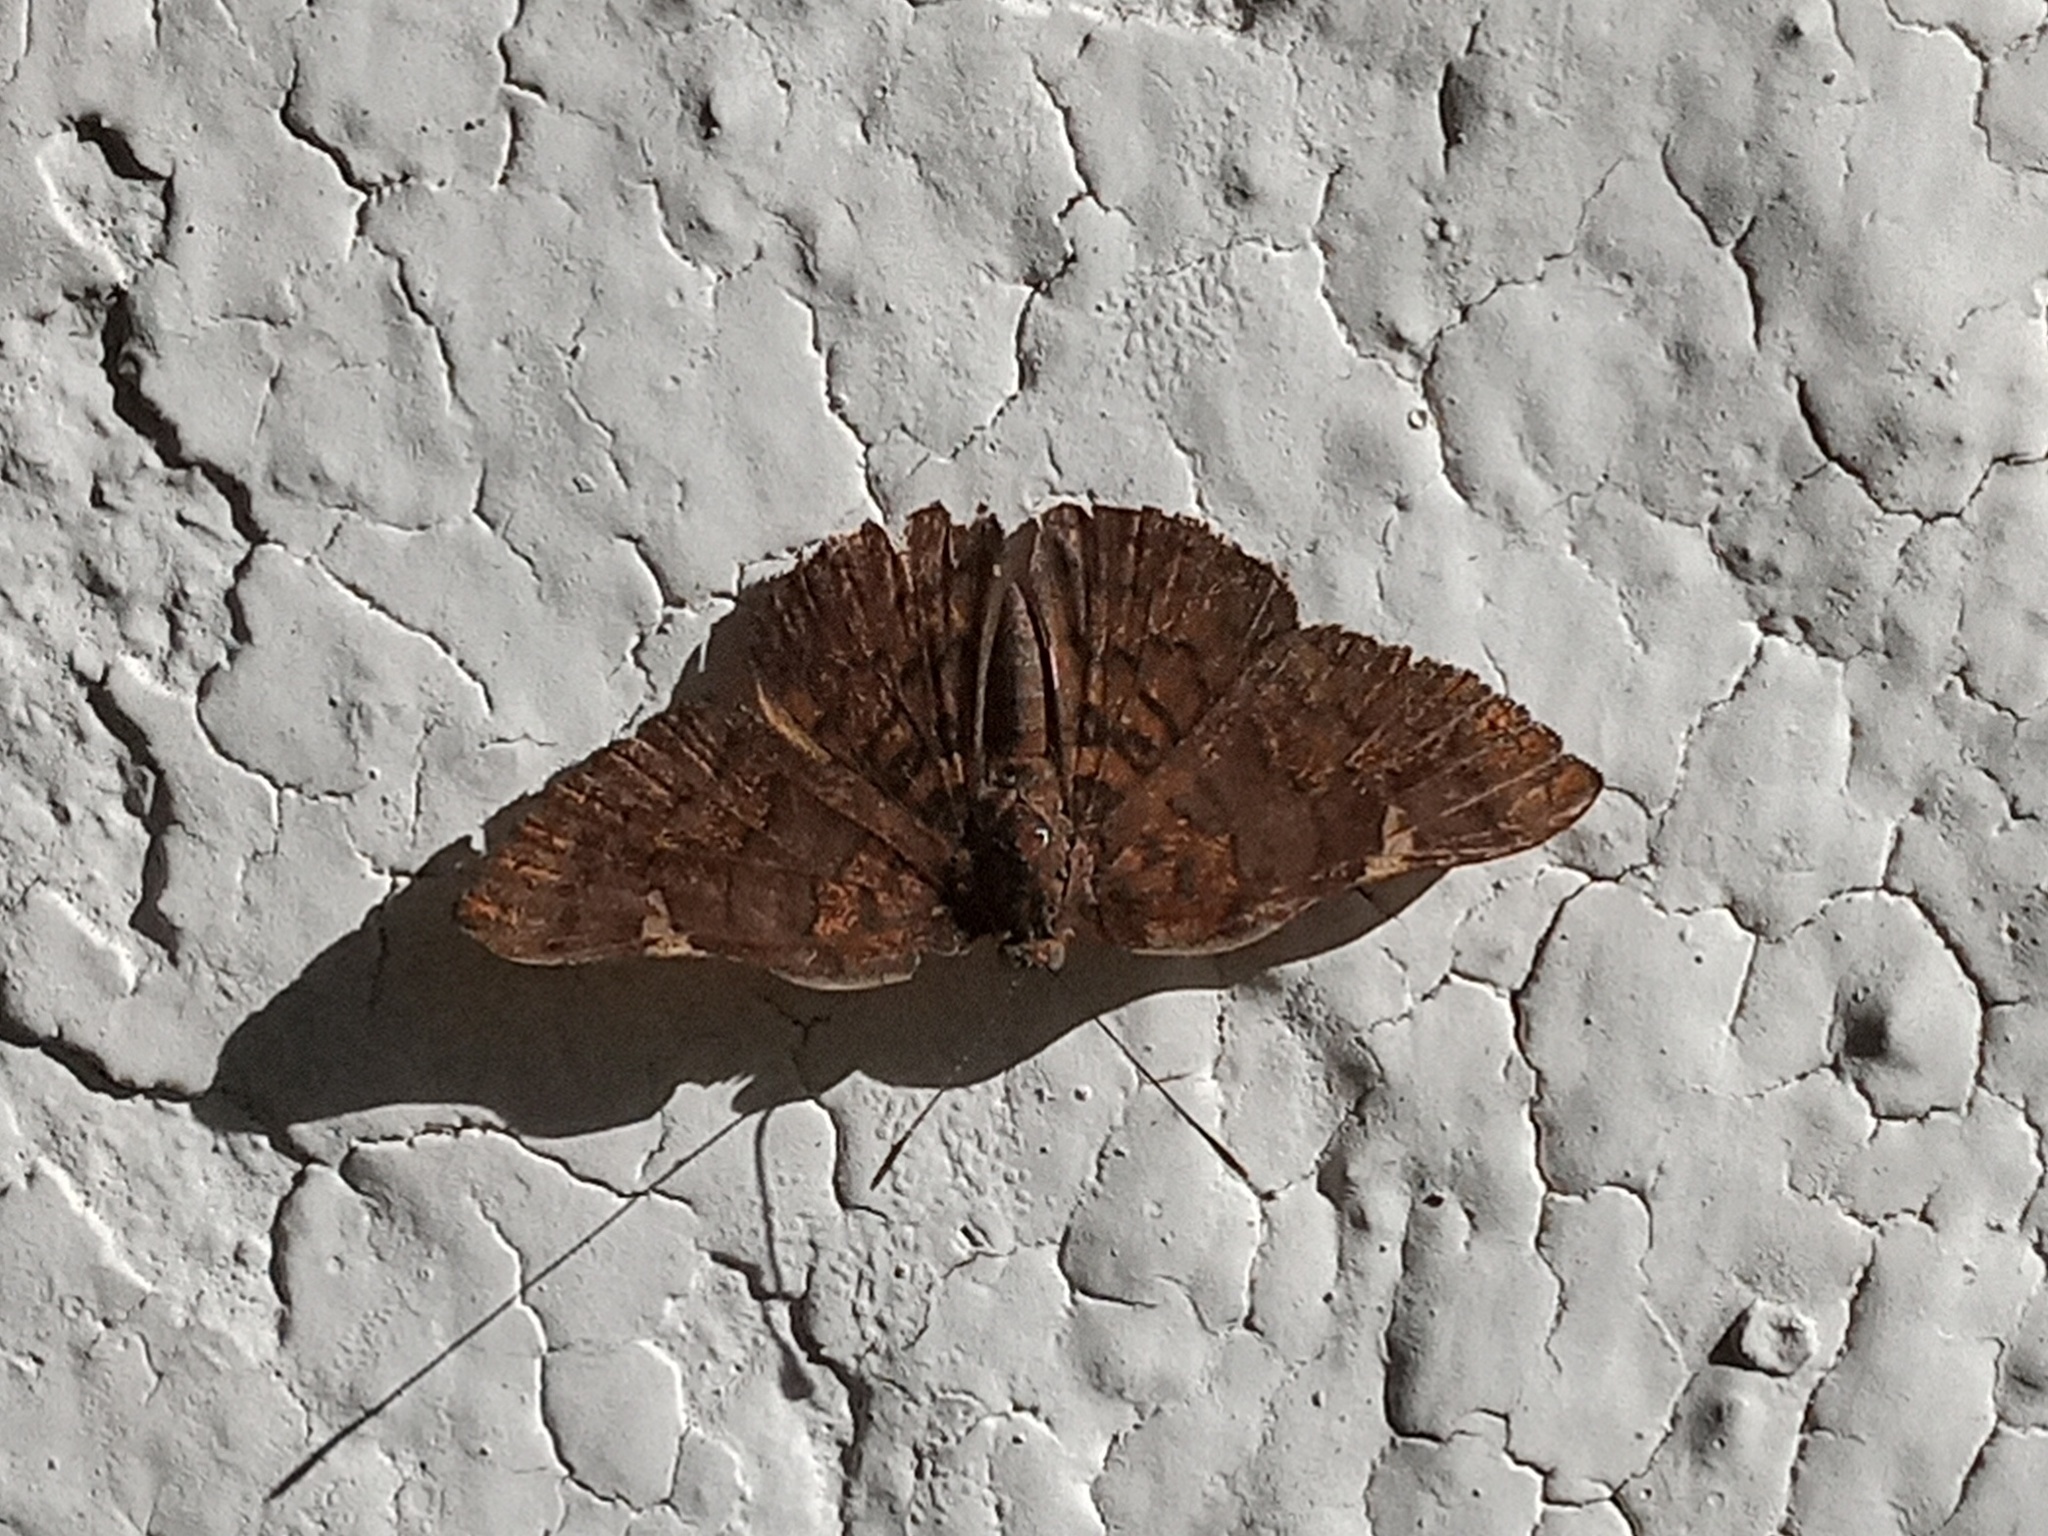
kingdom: Animalia
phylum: Arthropoda
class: Insecta
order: Lepidoptera
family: Riodinidae
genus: Curvie
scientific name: Curvie emesia
